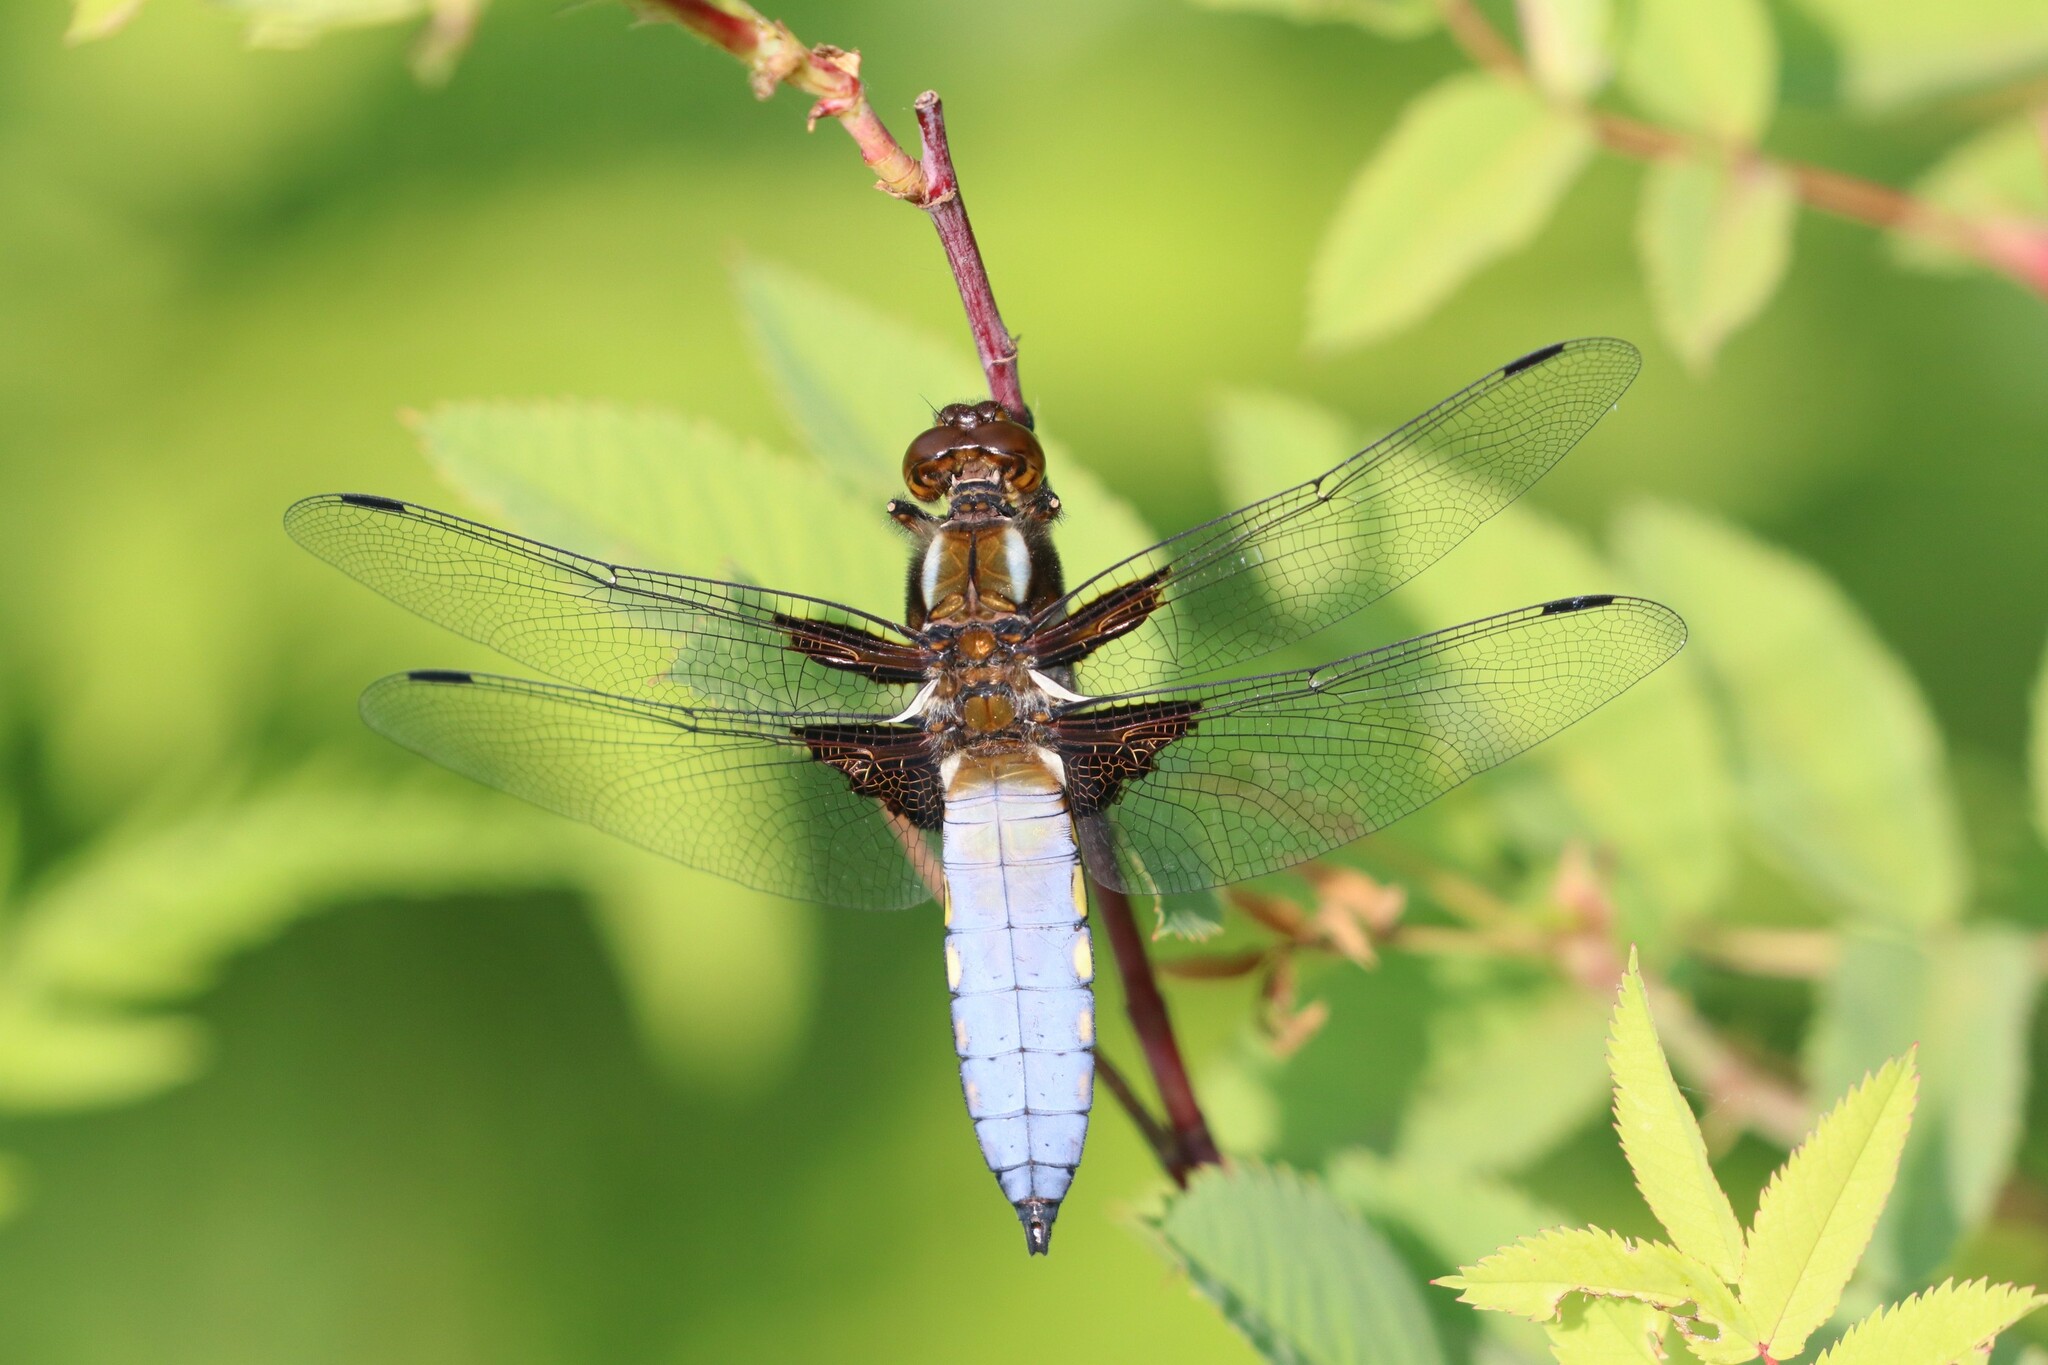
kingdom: Animalia
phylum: Arthropoda
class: Insecta
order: Odonata
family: Libellulidae
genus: Libellula
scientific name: Libellula depressa
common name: Broad-bodied chaser
